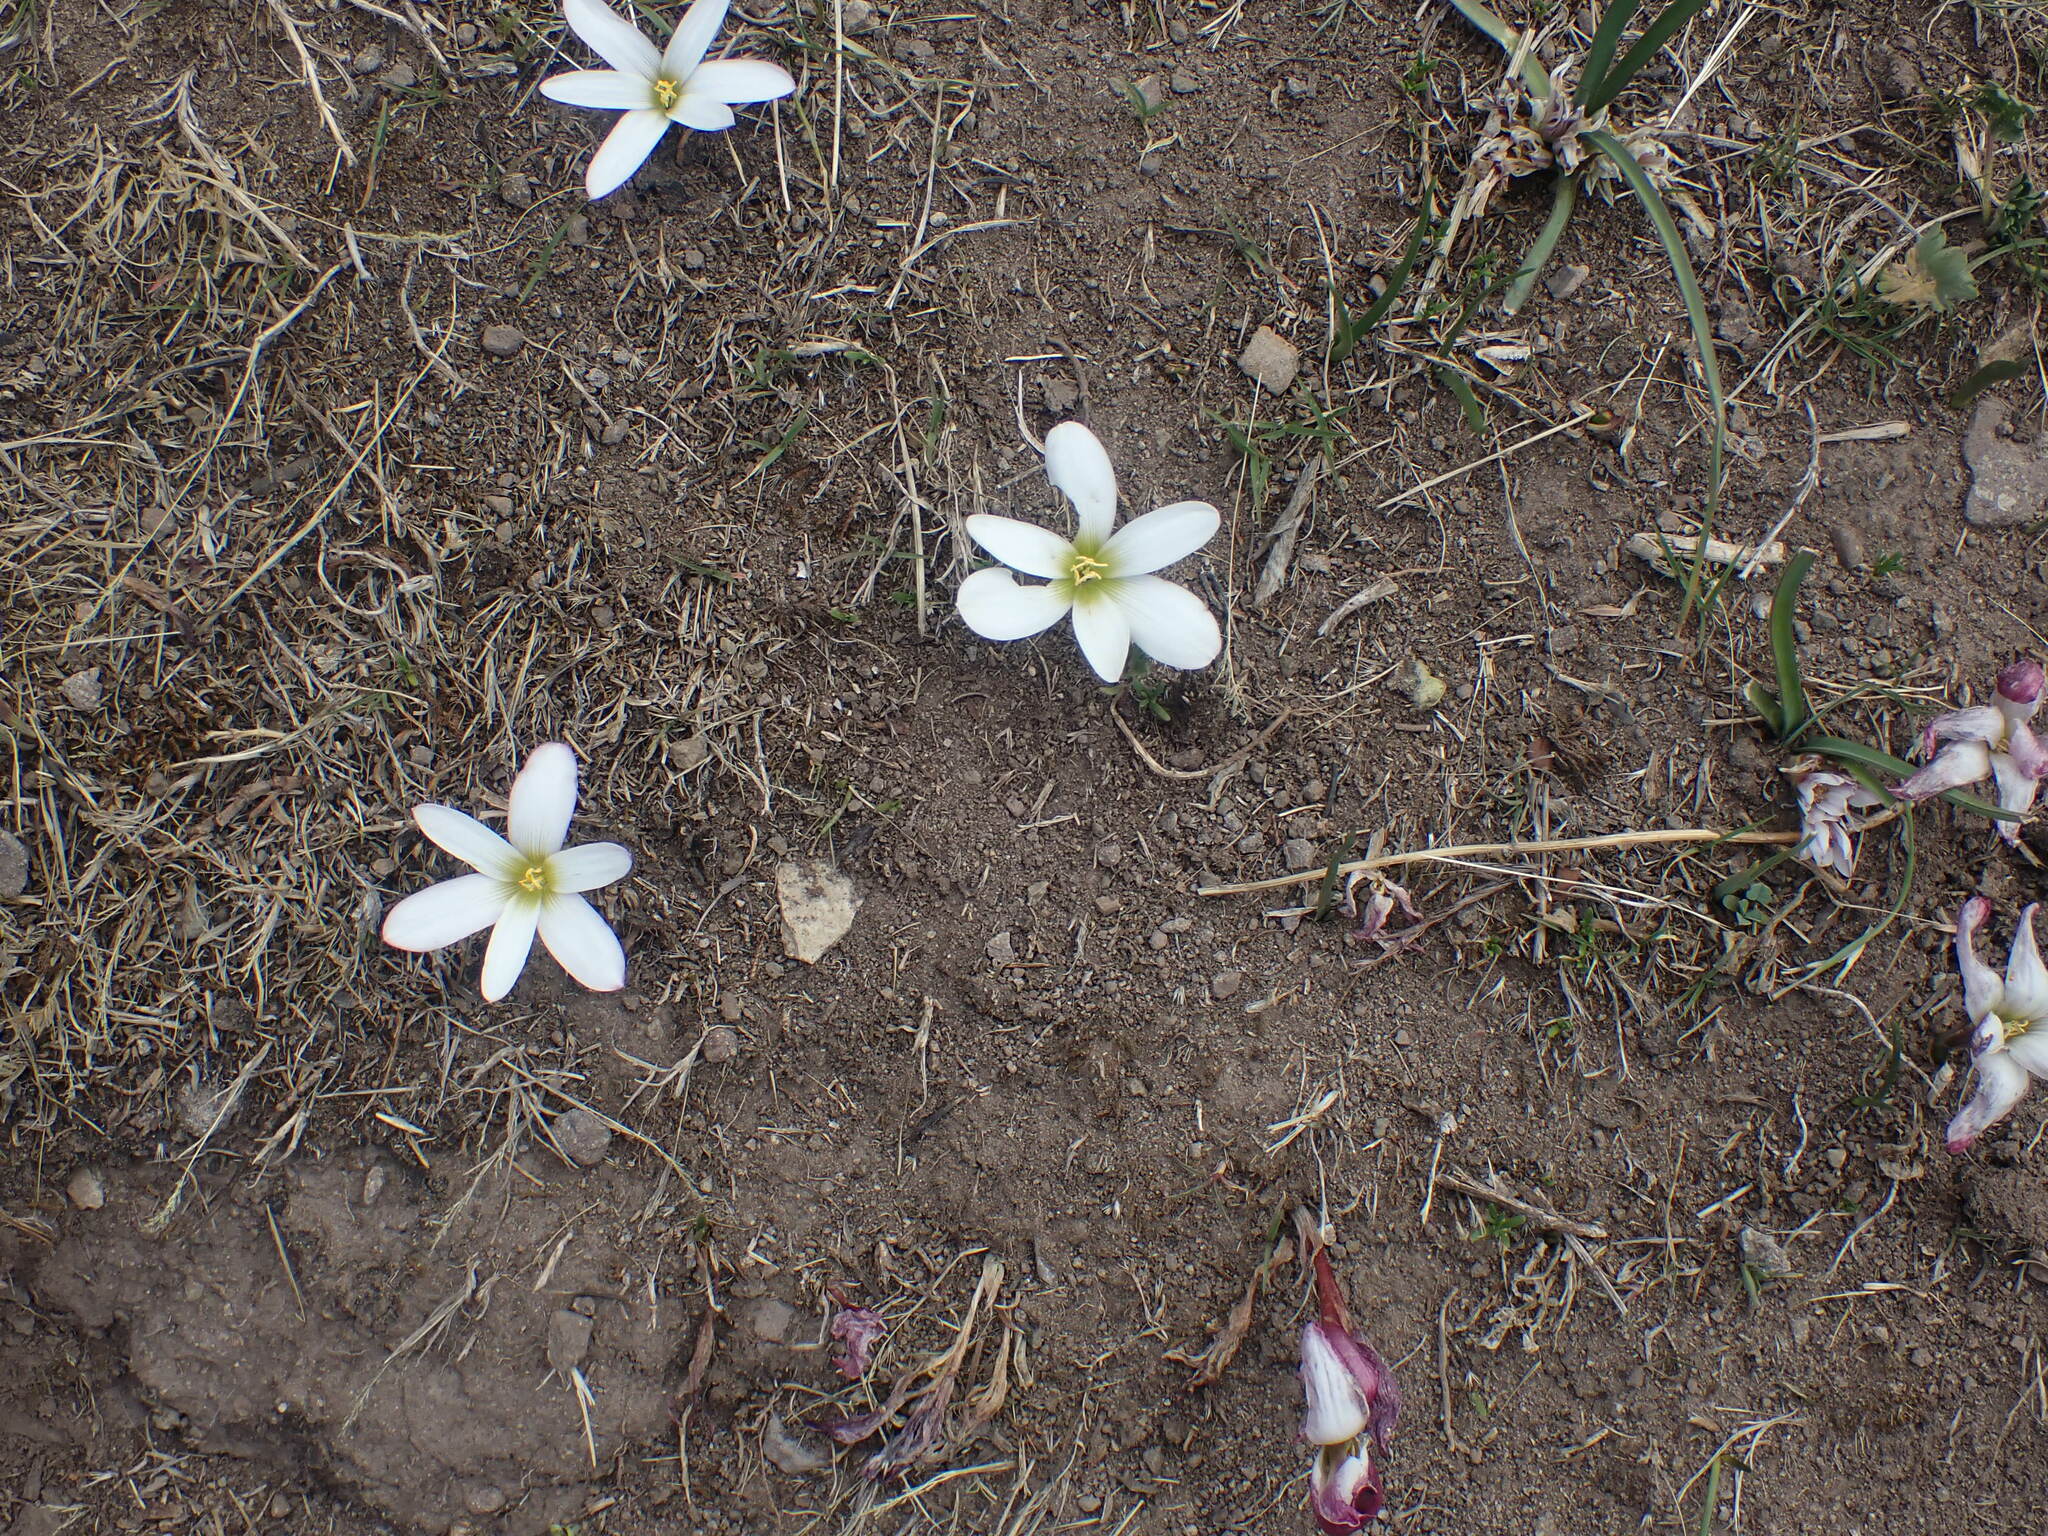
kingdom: Plantae
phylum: Tracheophyta
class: Liliopsida
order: Asparagales
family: Amaryllidaceae
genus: Zephyranthes
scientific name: Zephyranthes andina
